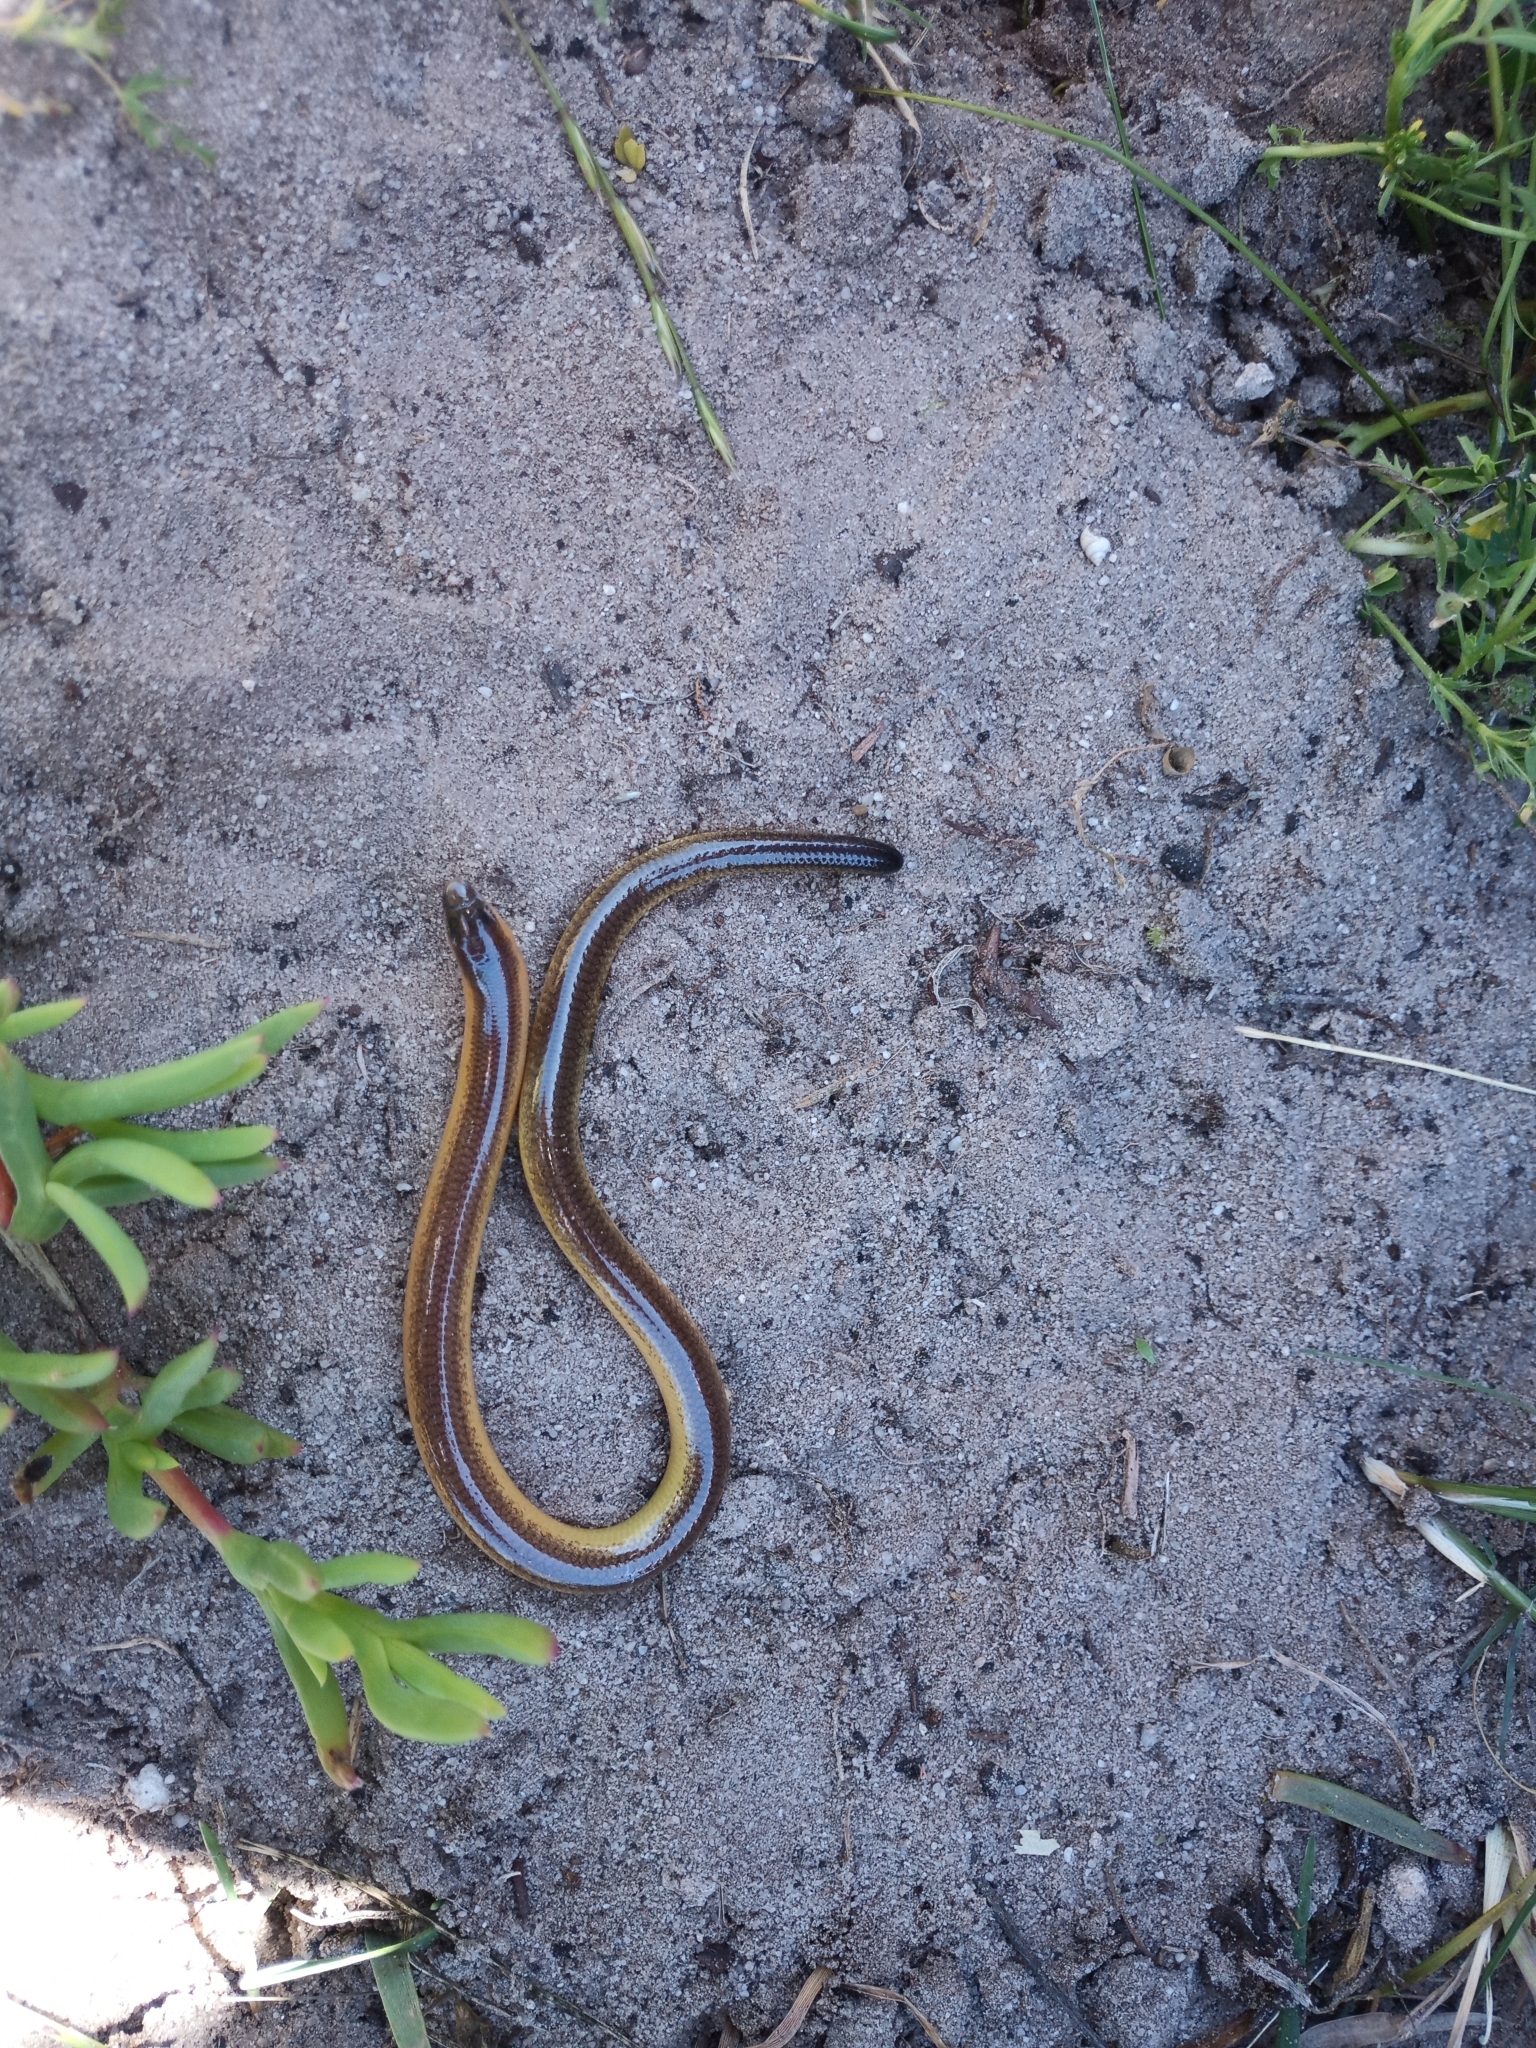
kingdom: Animalia
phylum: Chordata
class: Squamata
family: Scincidae
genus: Acontias
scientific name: Acontias meleagris
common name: Cape legless skink
